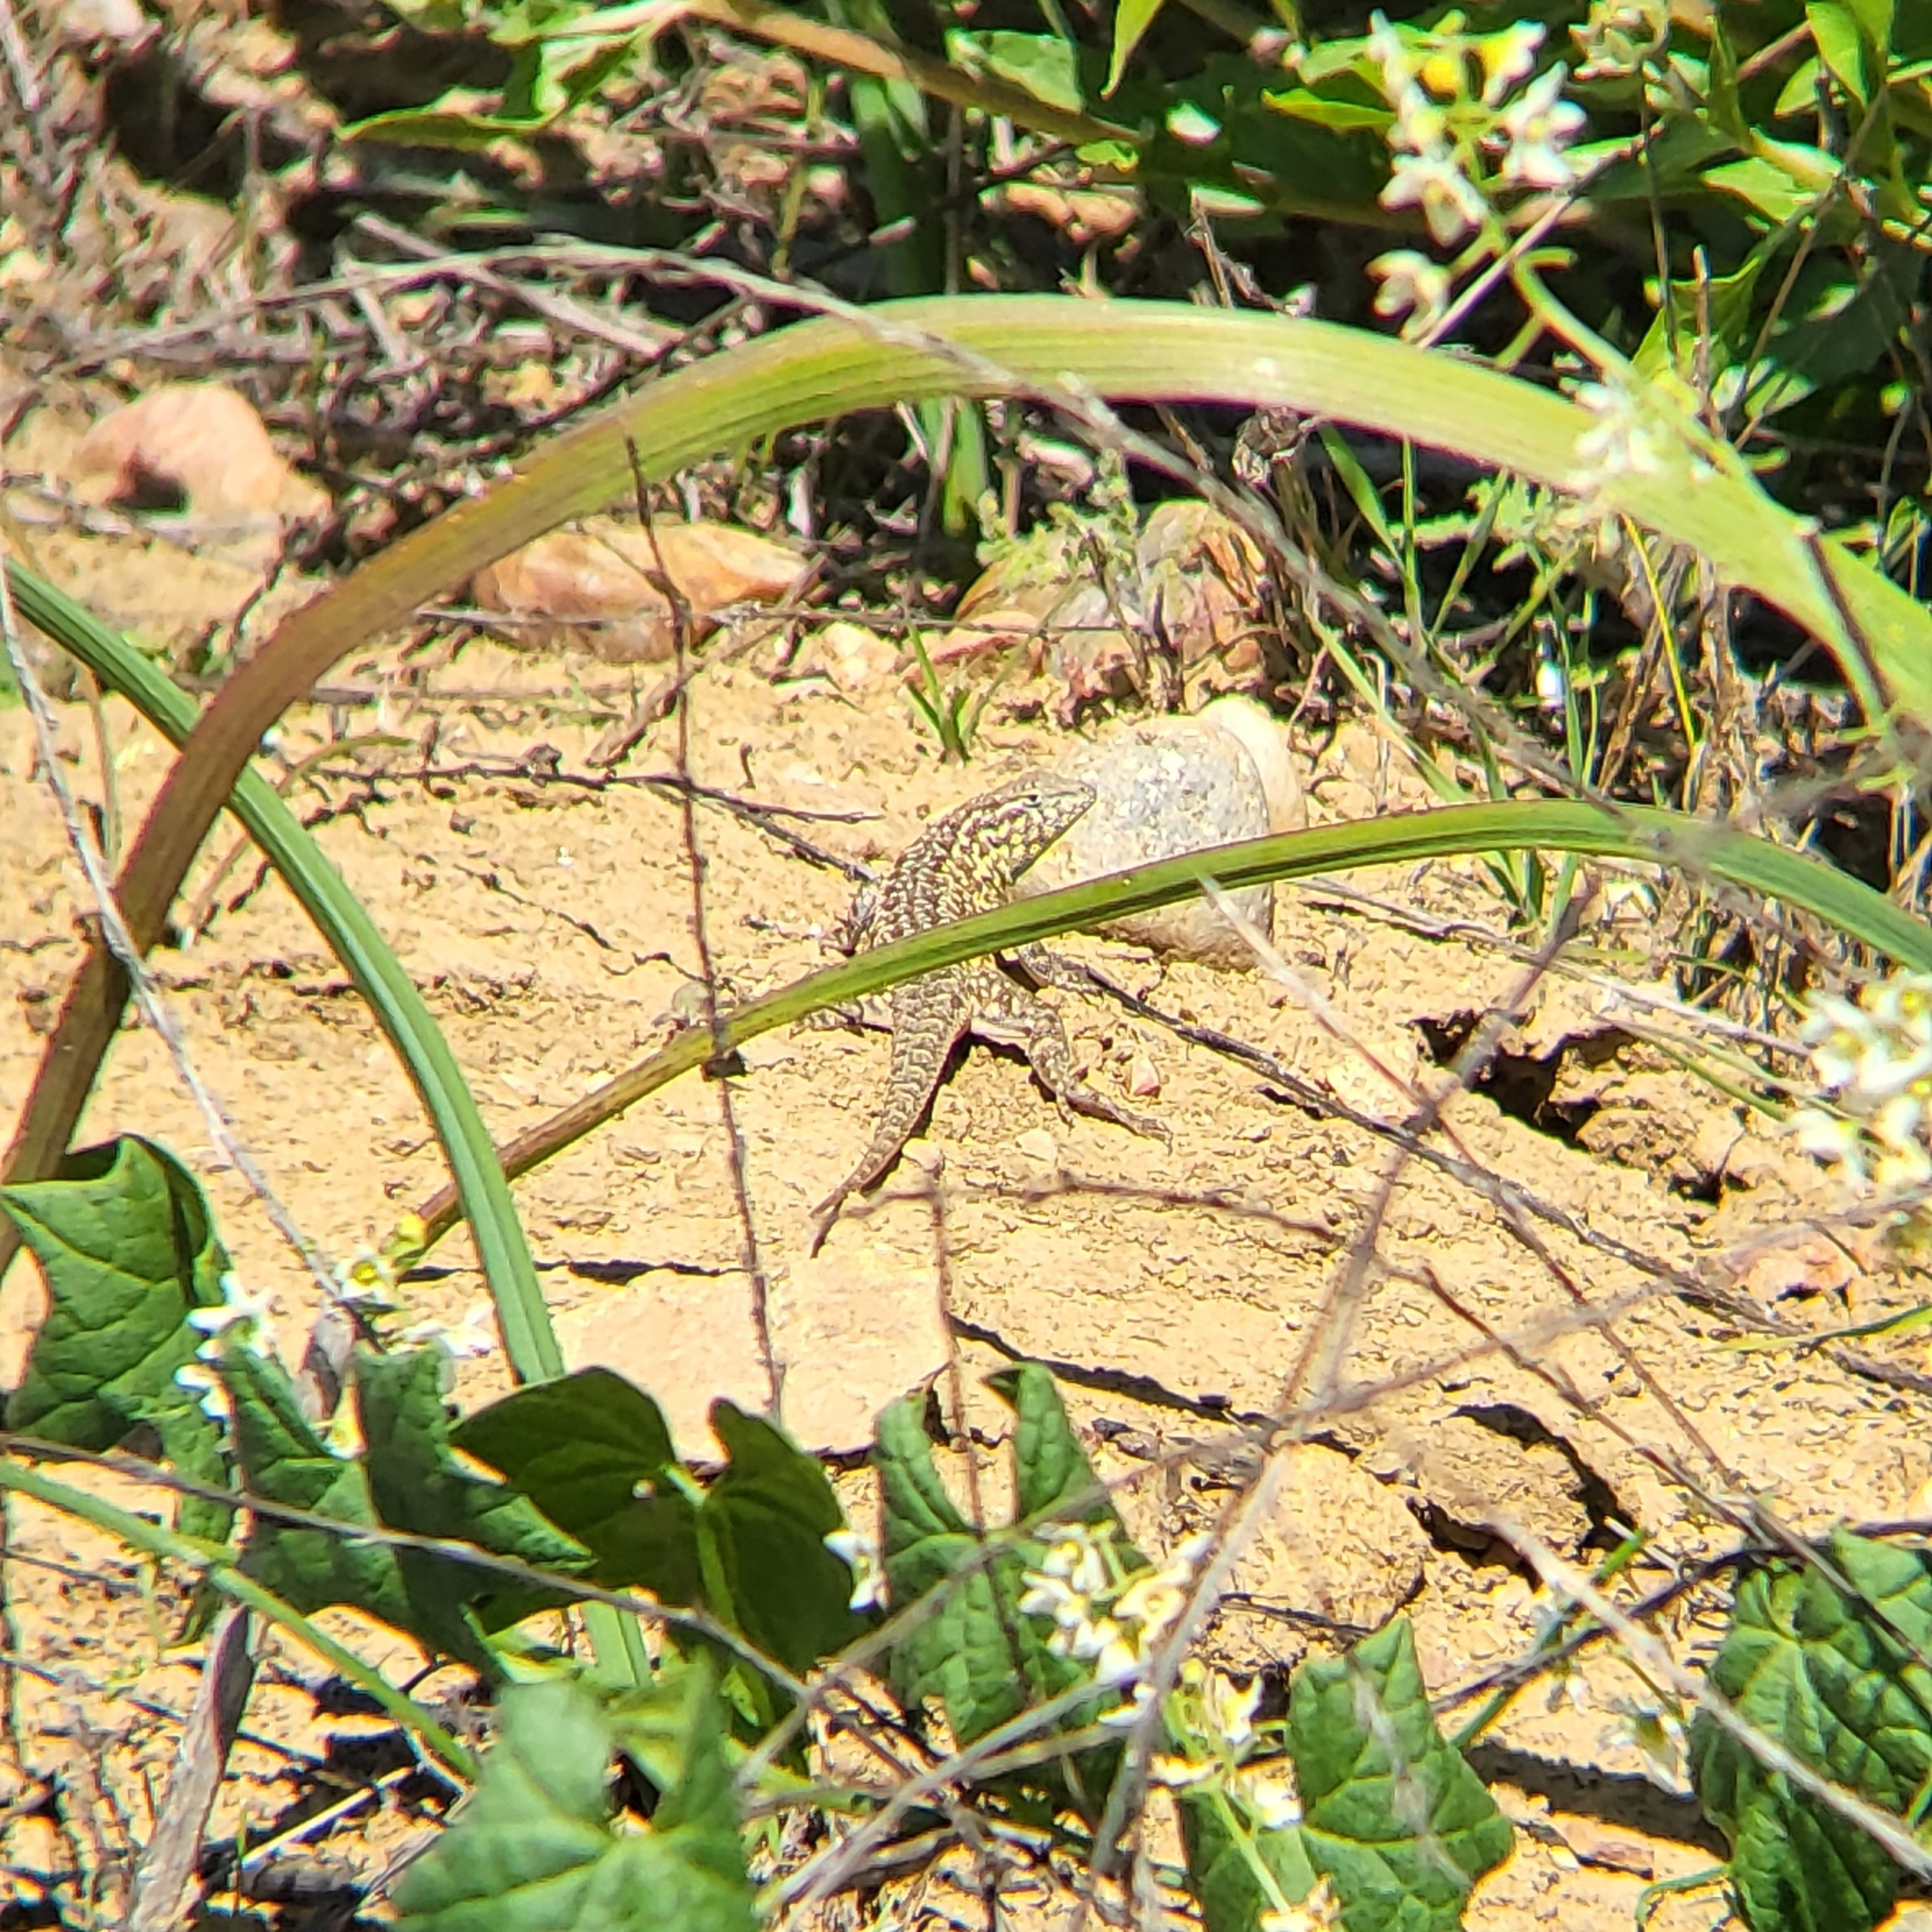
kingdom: Animalia
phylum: Chordata
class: Squamata
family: Phrynosomatidae
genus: Uta
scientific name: Uta stansburiana
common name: Side-blotched lizard
